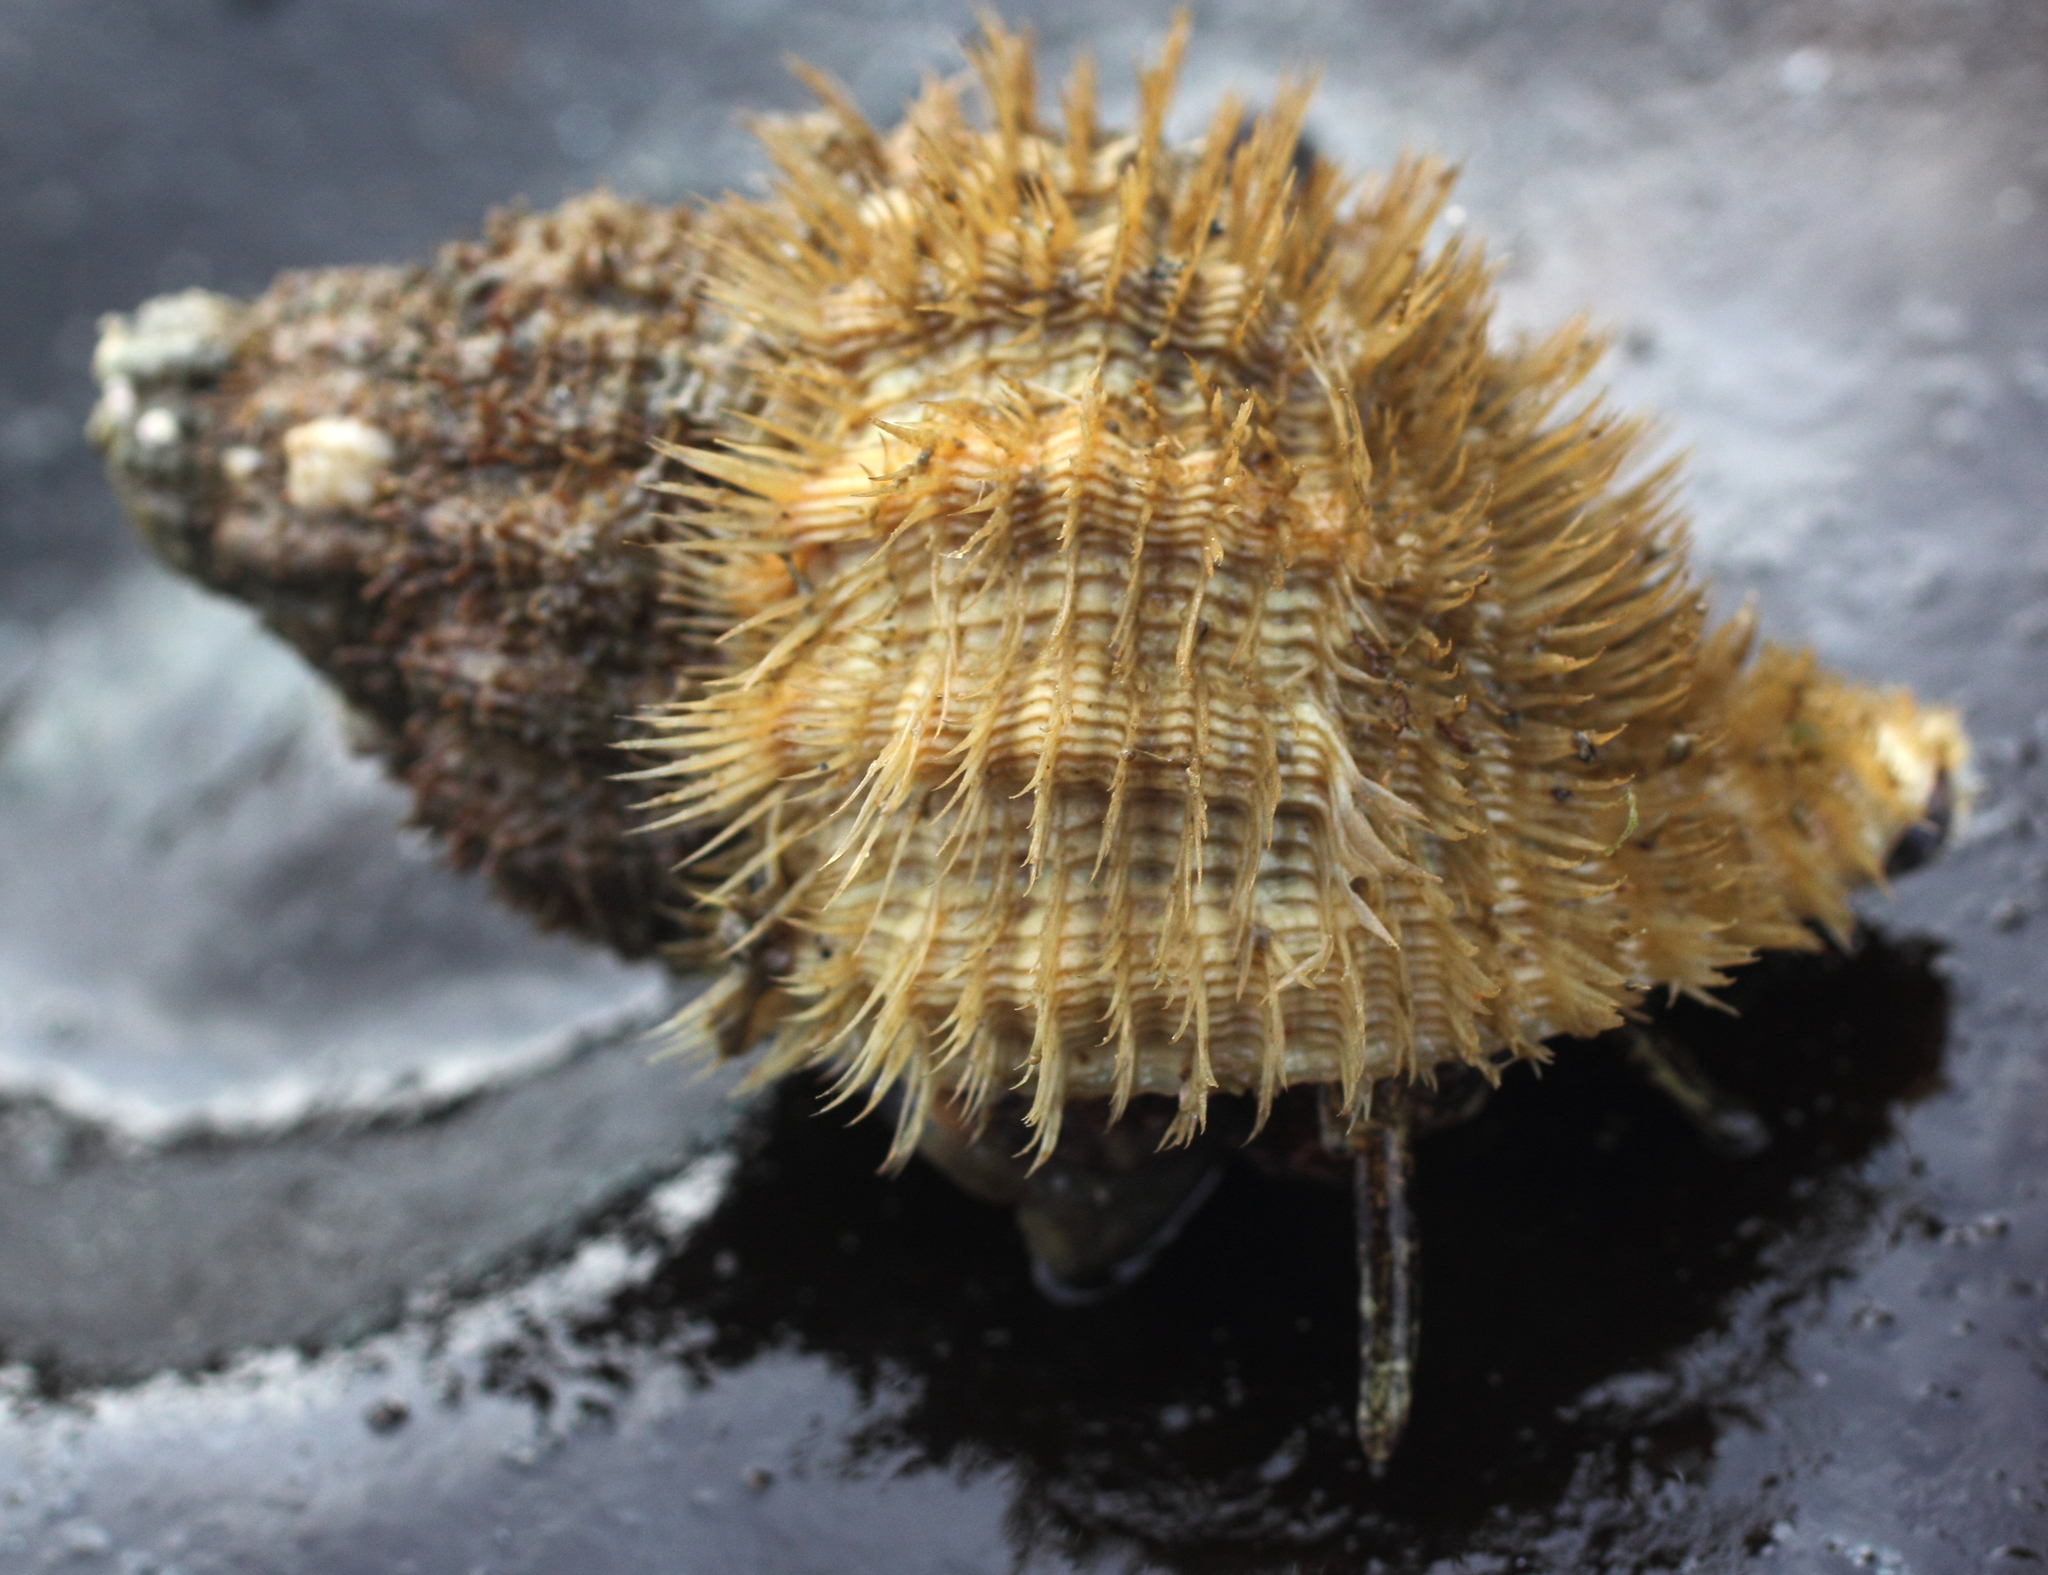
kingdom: Animalia
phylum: Mollusca
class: Gastropoda
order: Littorinimorpha
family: Cymatiidae
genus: Fusitriton
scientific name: Fusitriton oregonensis
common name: Oregon hairy triton
